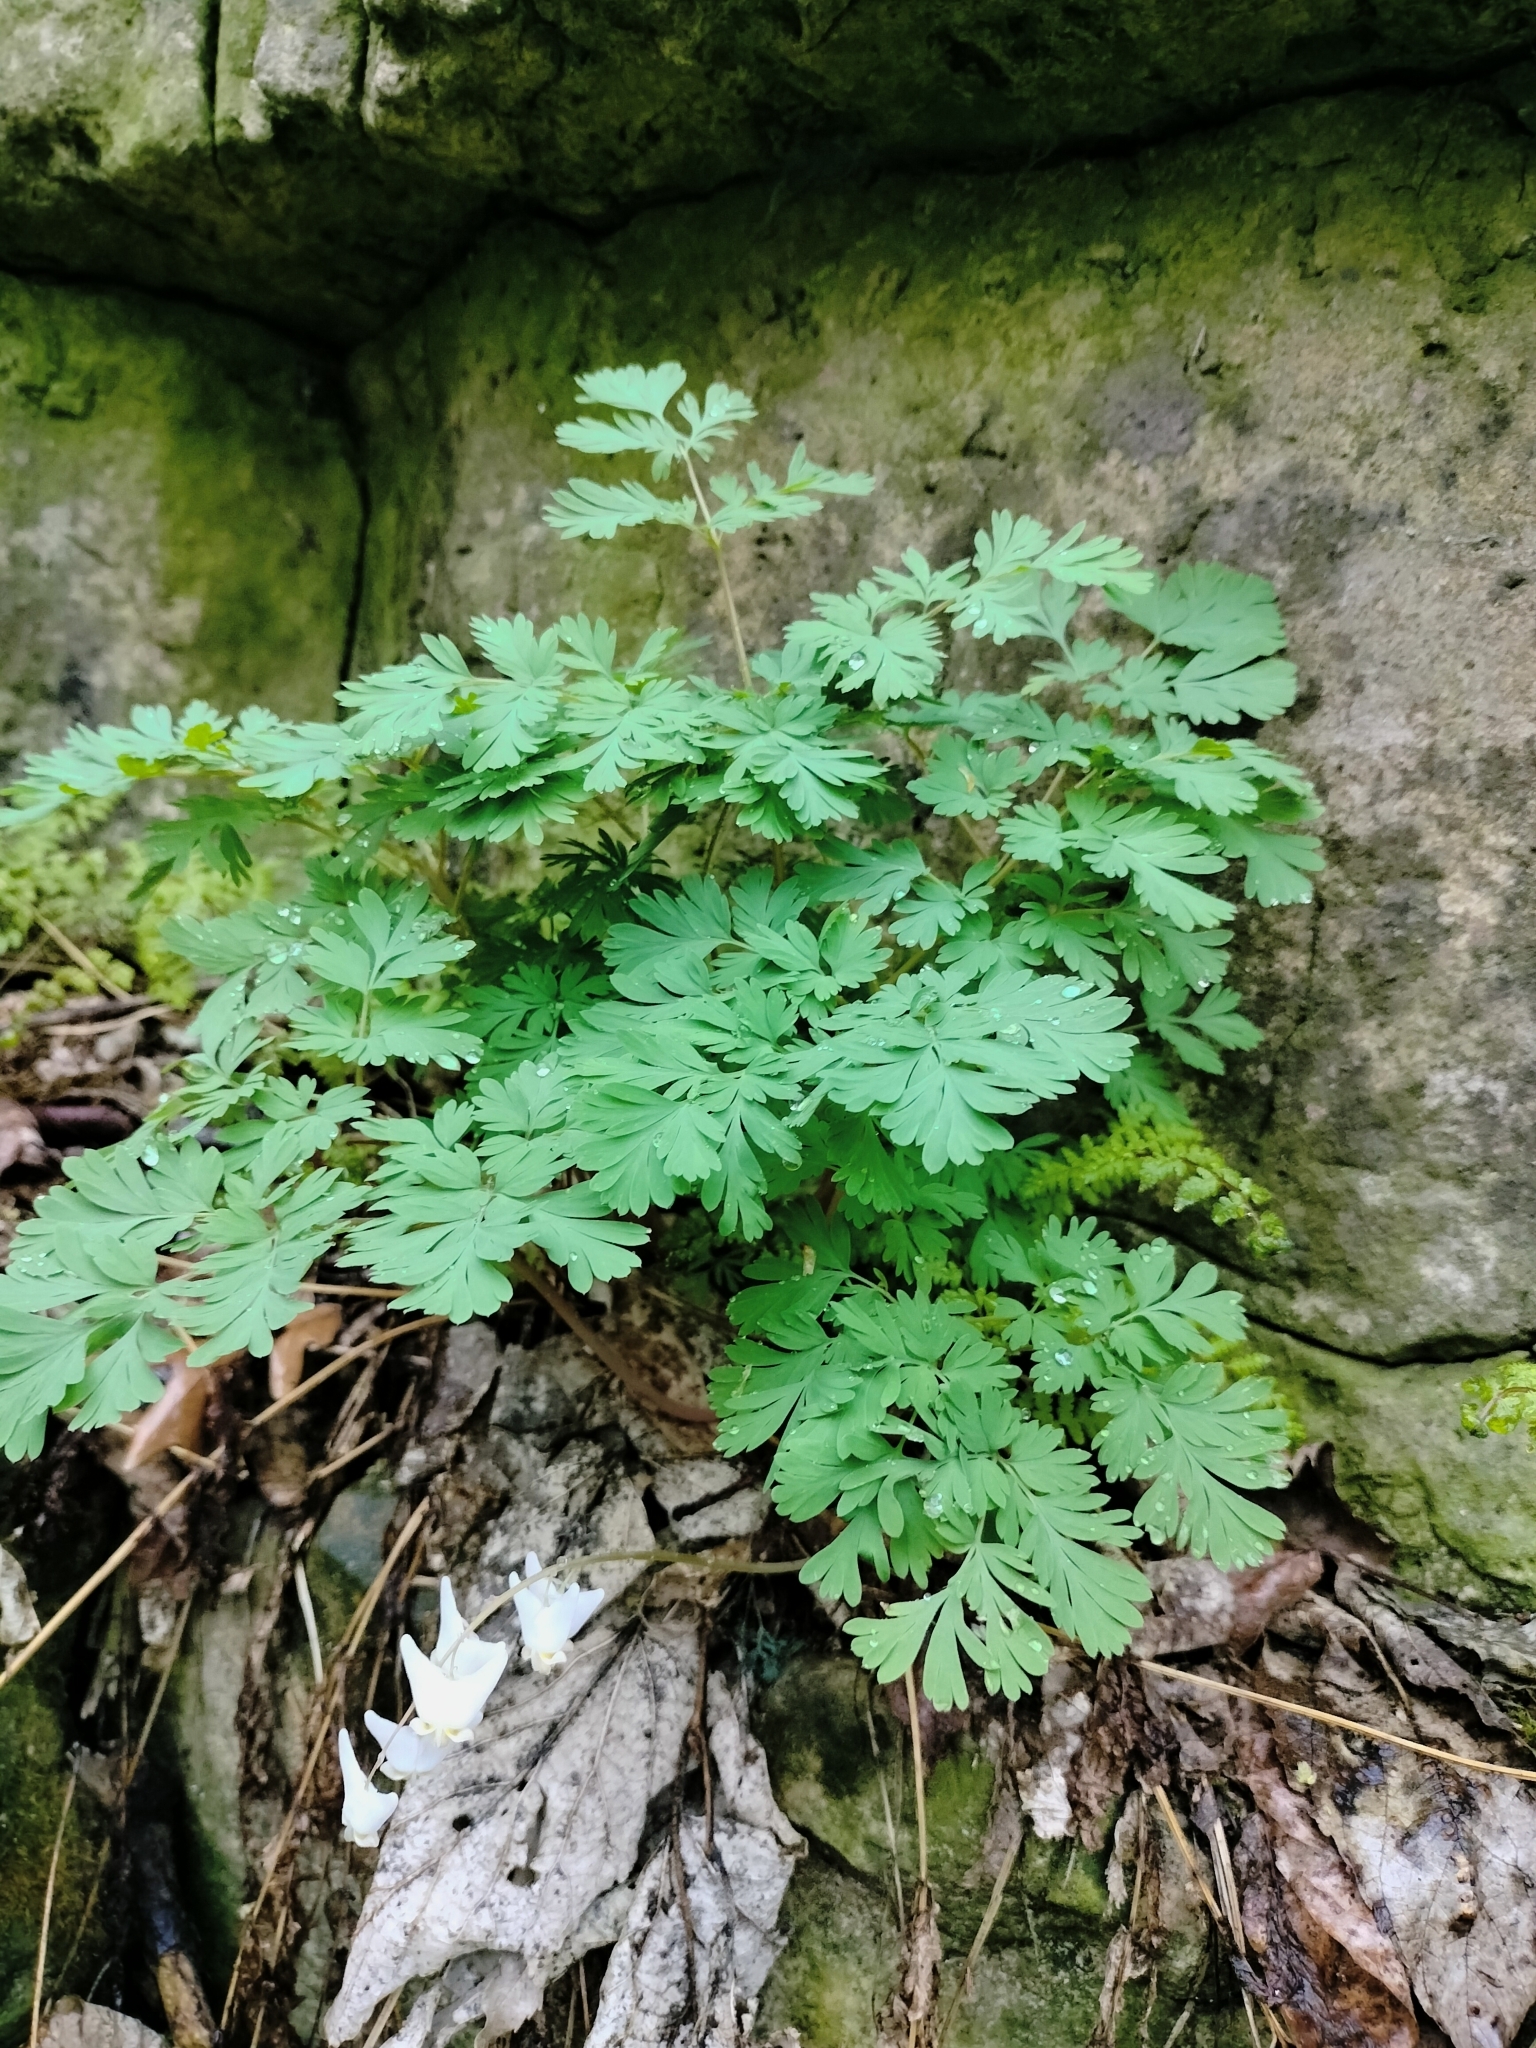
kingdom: Plantae
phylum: Tracheophyta
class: Magnoliopsida
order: Ranunculales
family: Papaveraceae
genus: Dicentra
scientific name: Dicentra cucullaria
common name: Dutchman's breeches
